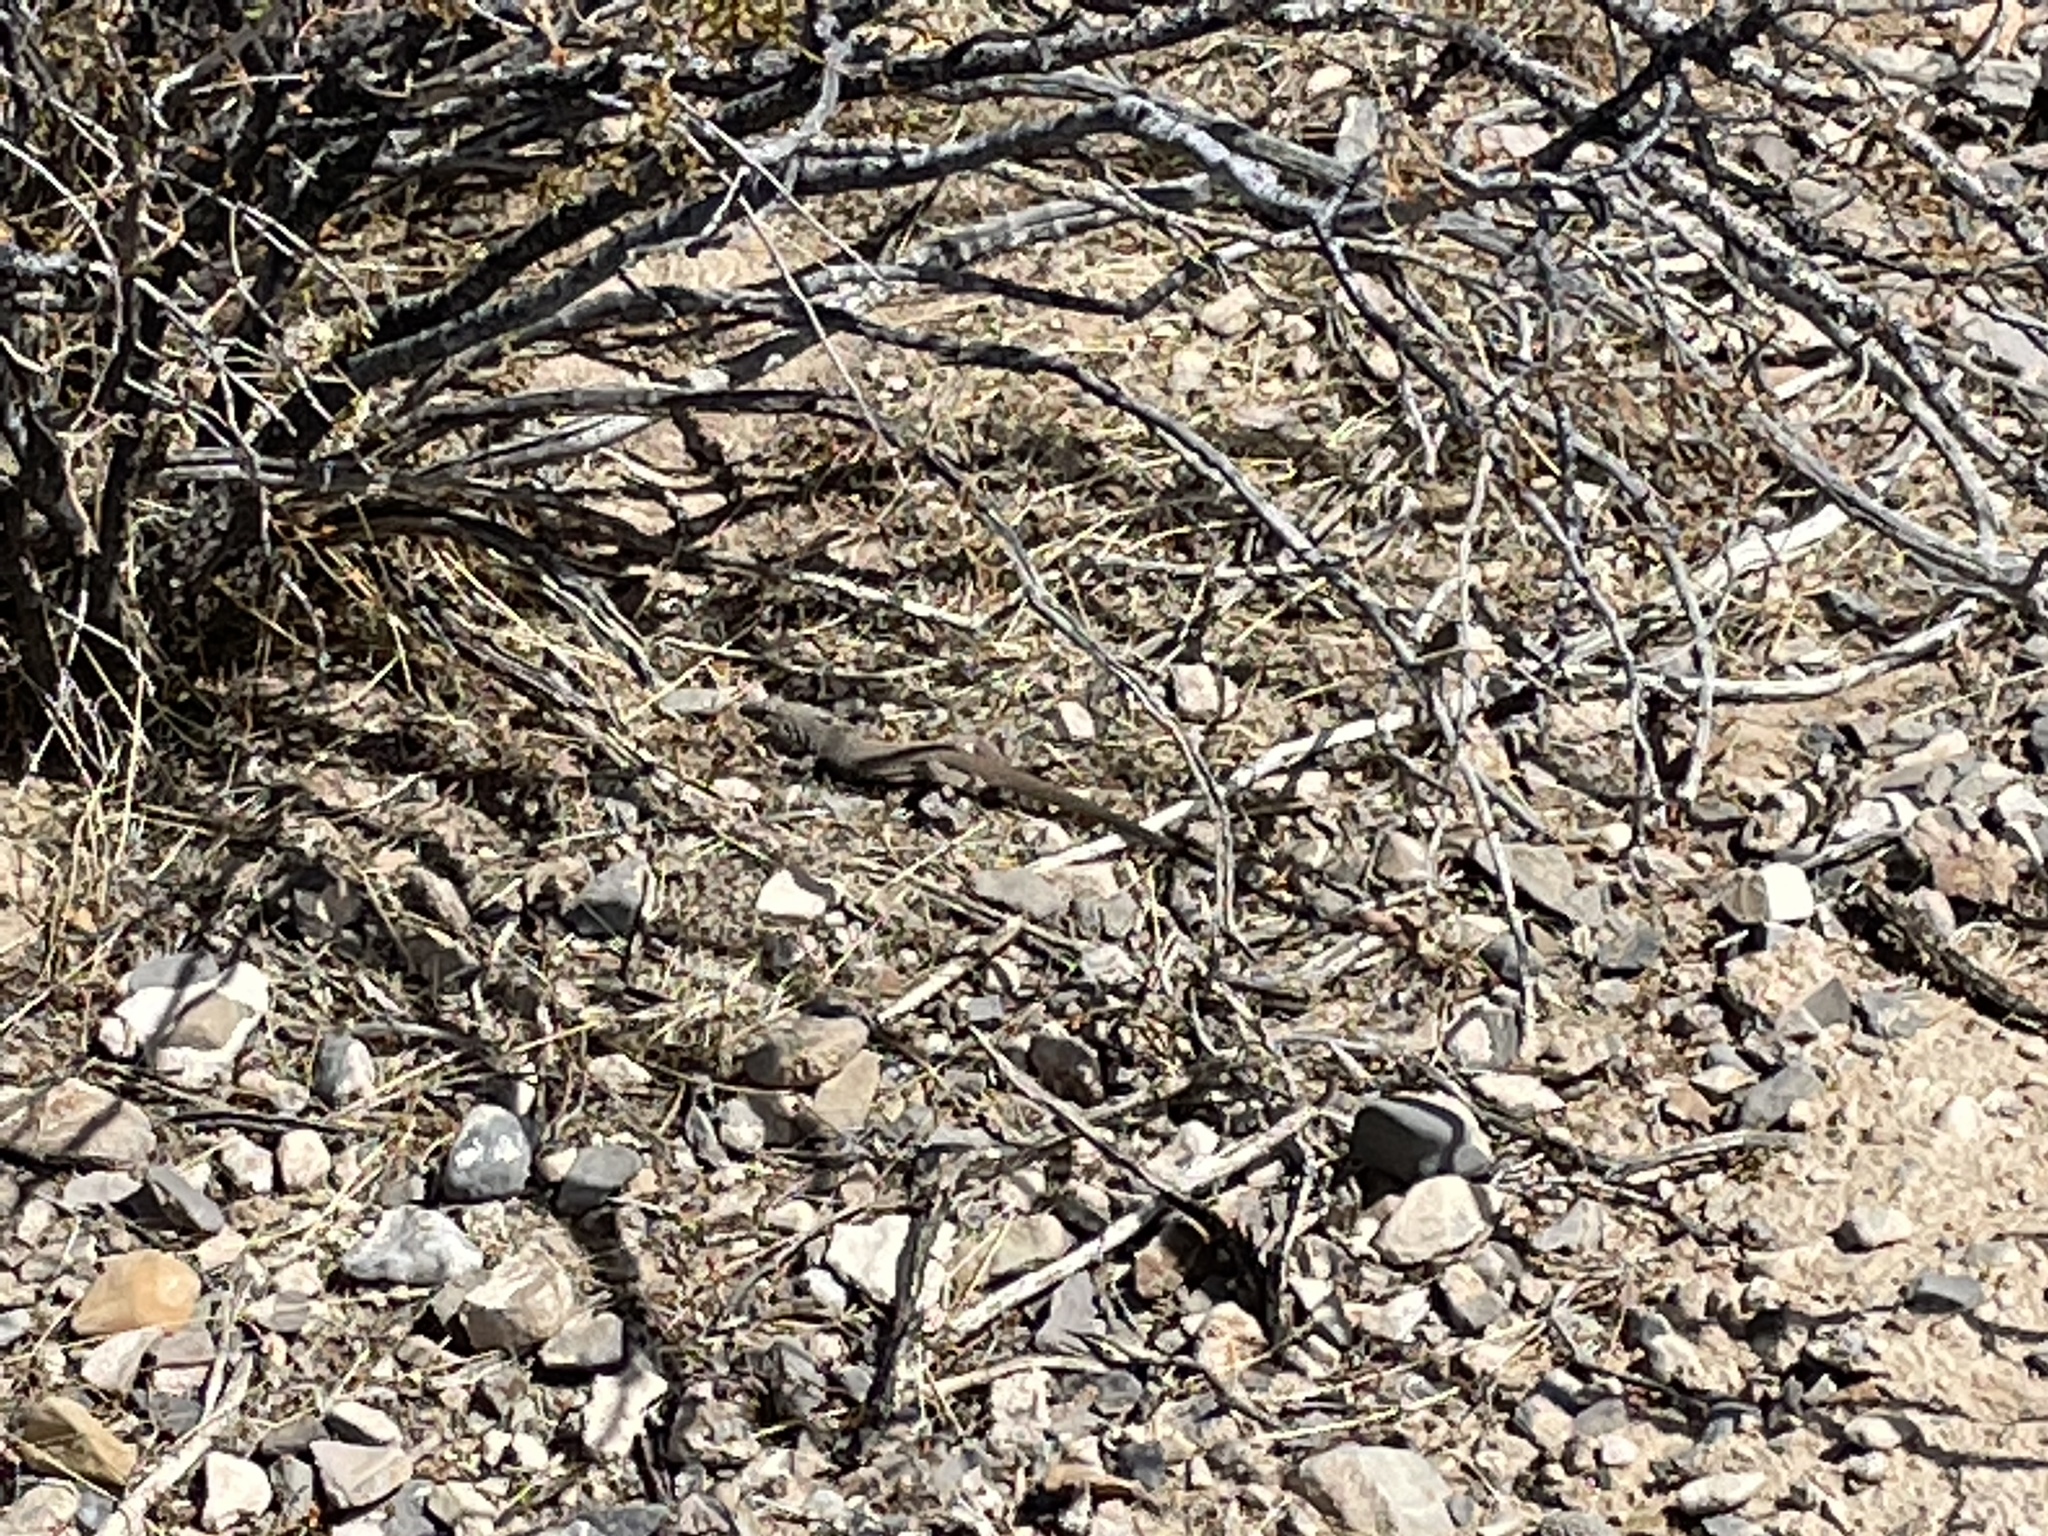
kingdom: Animalia
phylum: Chordata
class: Squamata
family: Teiidae
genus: Aspidoscelis
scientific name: Aspidoscelis tigris
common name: Tiger whiptail
